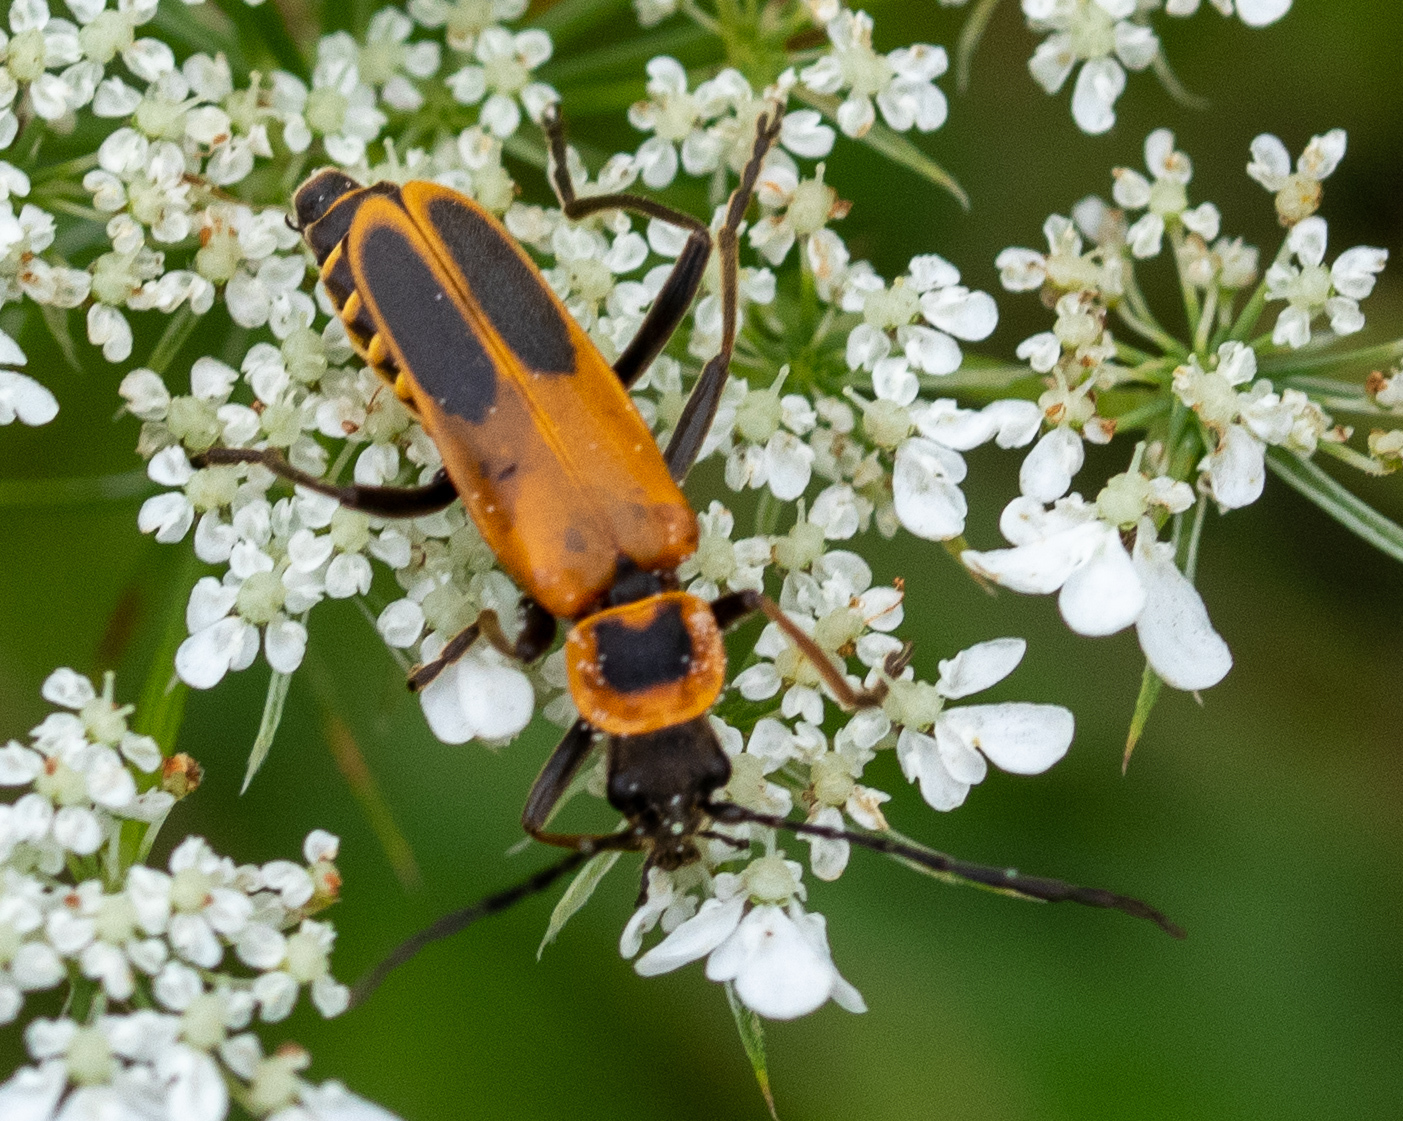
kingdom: Animalia
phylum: Arthropoda
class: Insecta
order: Coleoptera
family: Cantharidae
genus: Chauliognathus
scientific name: Chauliognathus pensylvanicus
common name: Goldenrod soldier beetle
